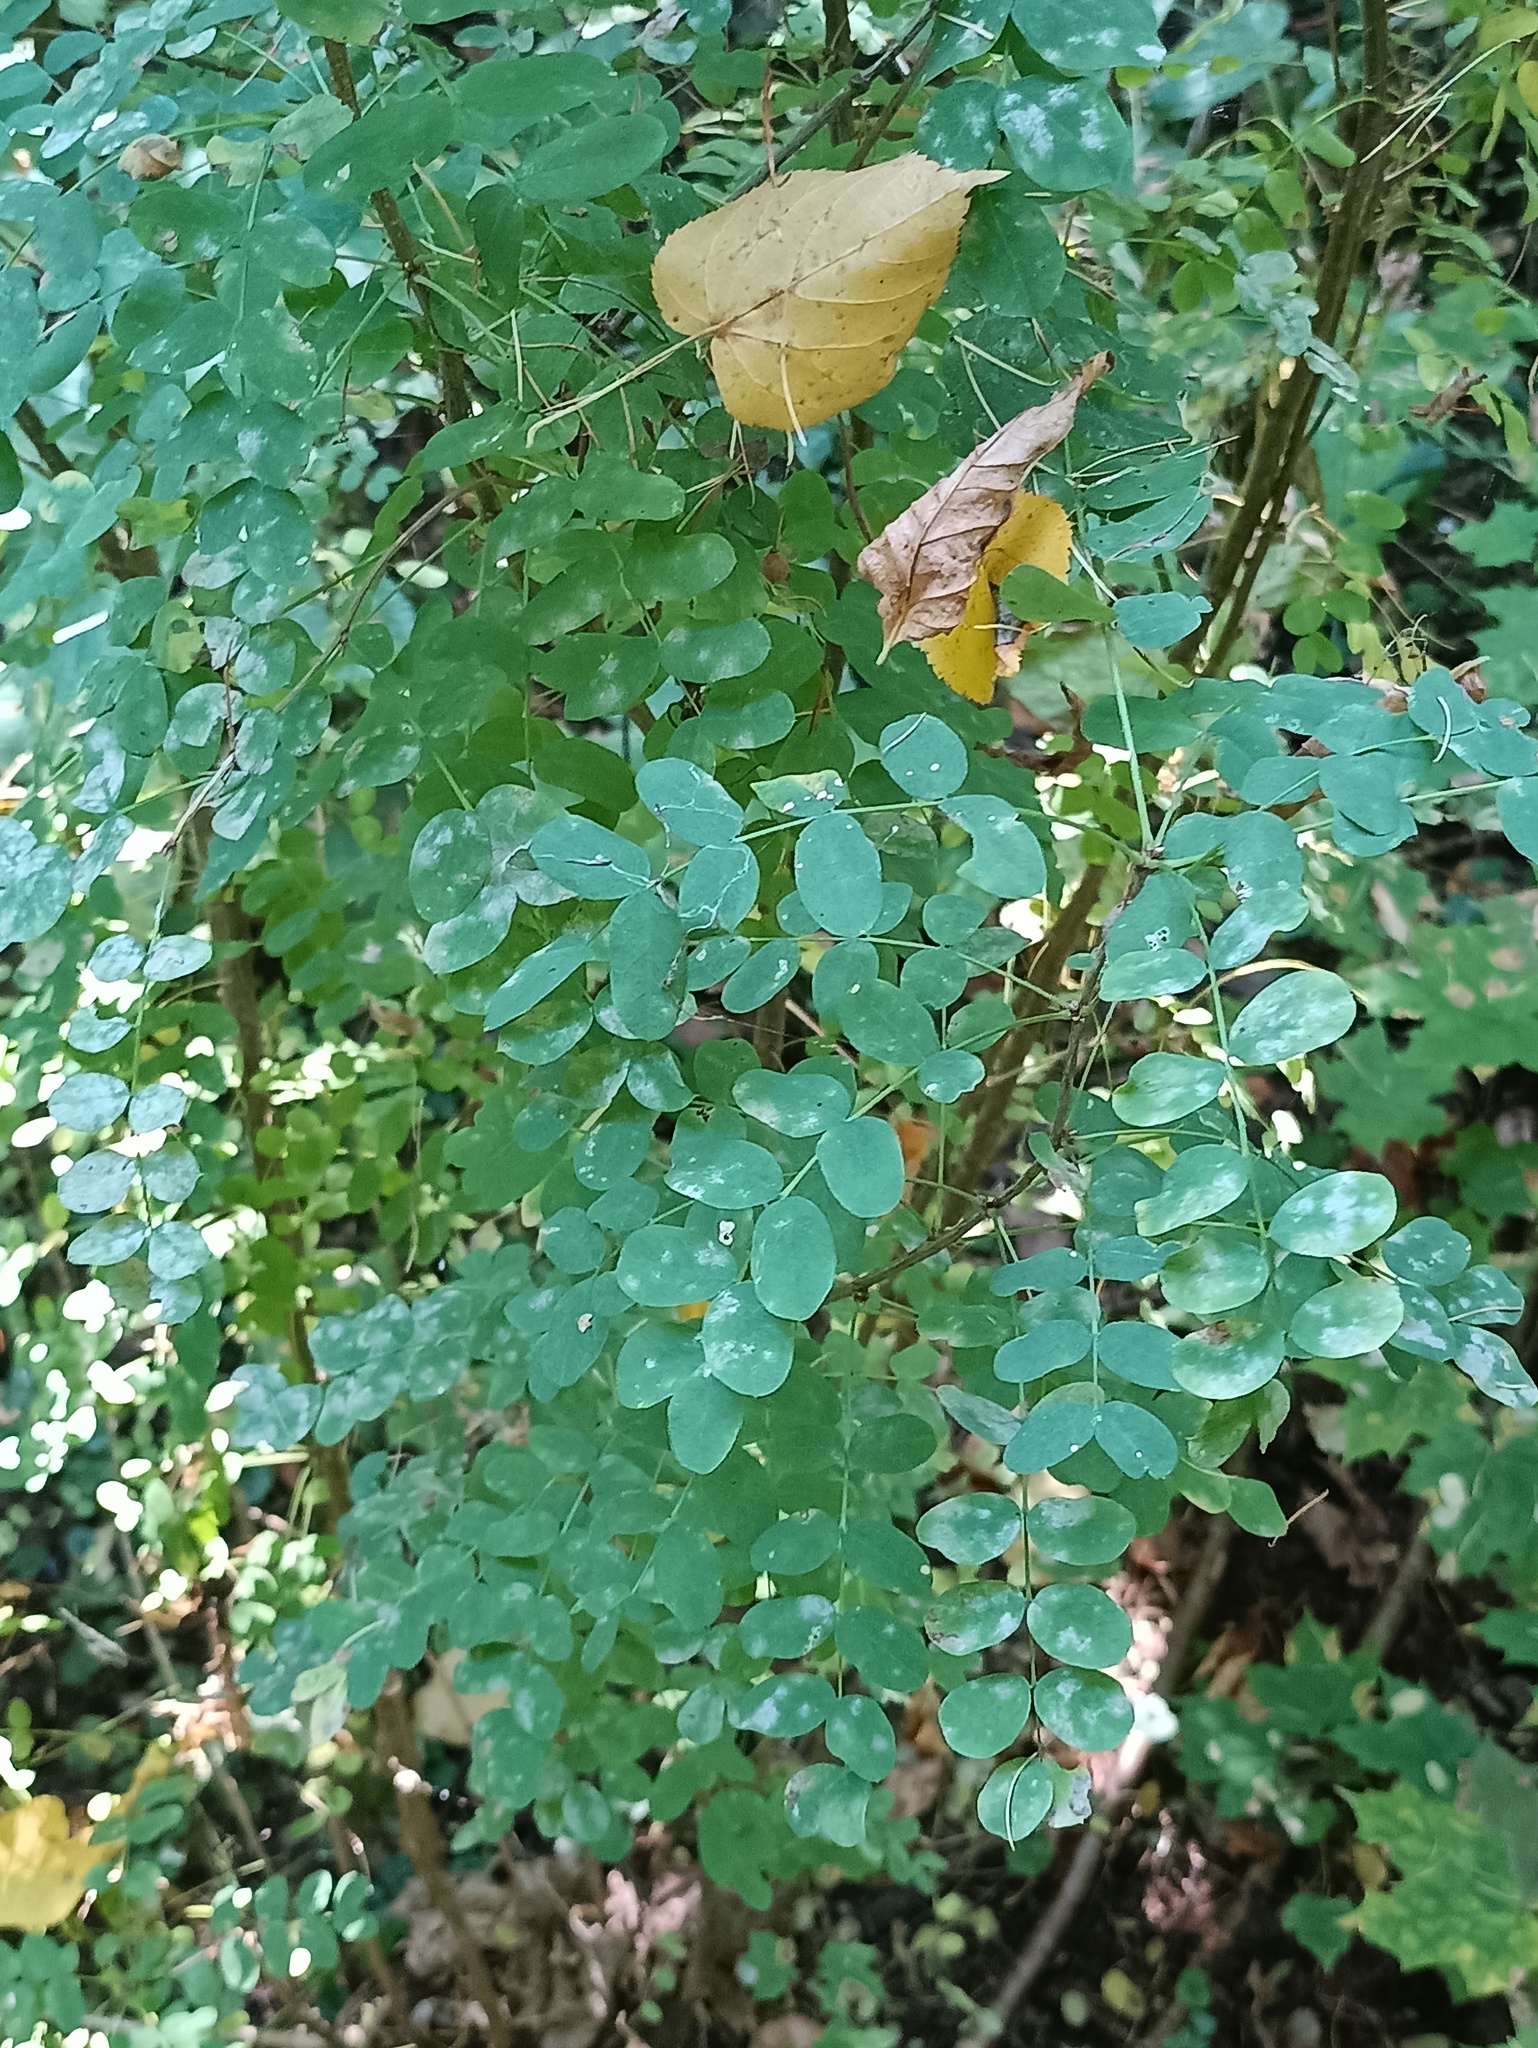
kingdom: Plantae
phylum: Tracheophyta
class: Magnoliopsida
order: Fabales
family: Fabaceae
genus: Caragana
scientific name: Caragana arborescens
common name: Siberian peashrub
